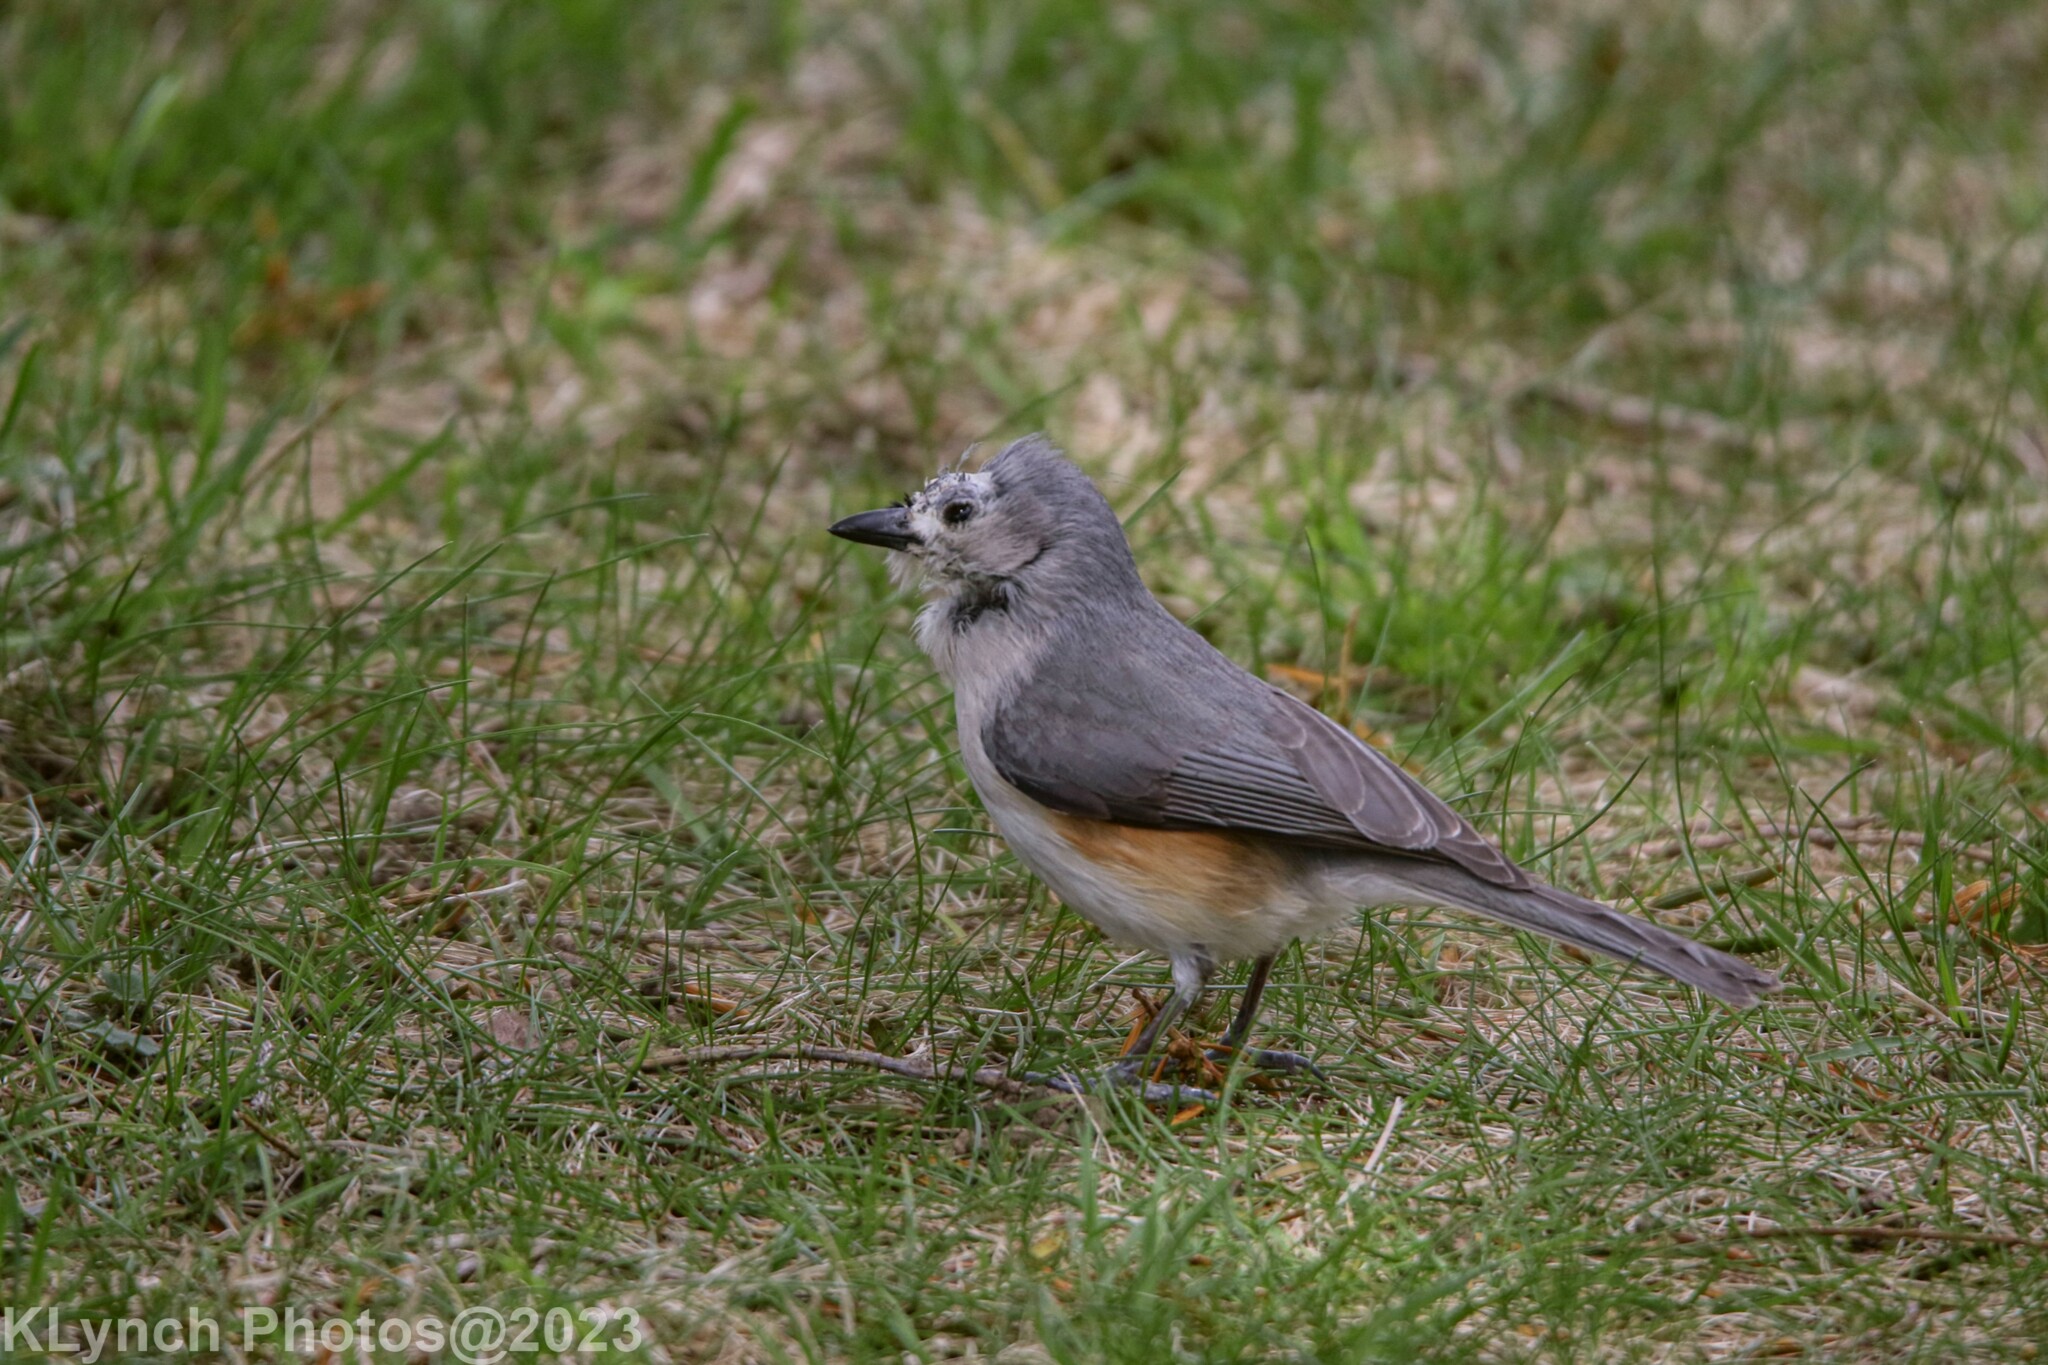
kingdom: Animalia
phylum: Chordata
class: Aves
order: Passeriformes
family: Paridae
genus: Baeolophus
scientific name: Baeolophus bicolor
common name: Tufted titmouse
